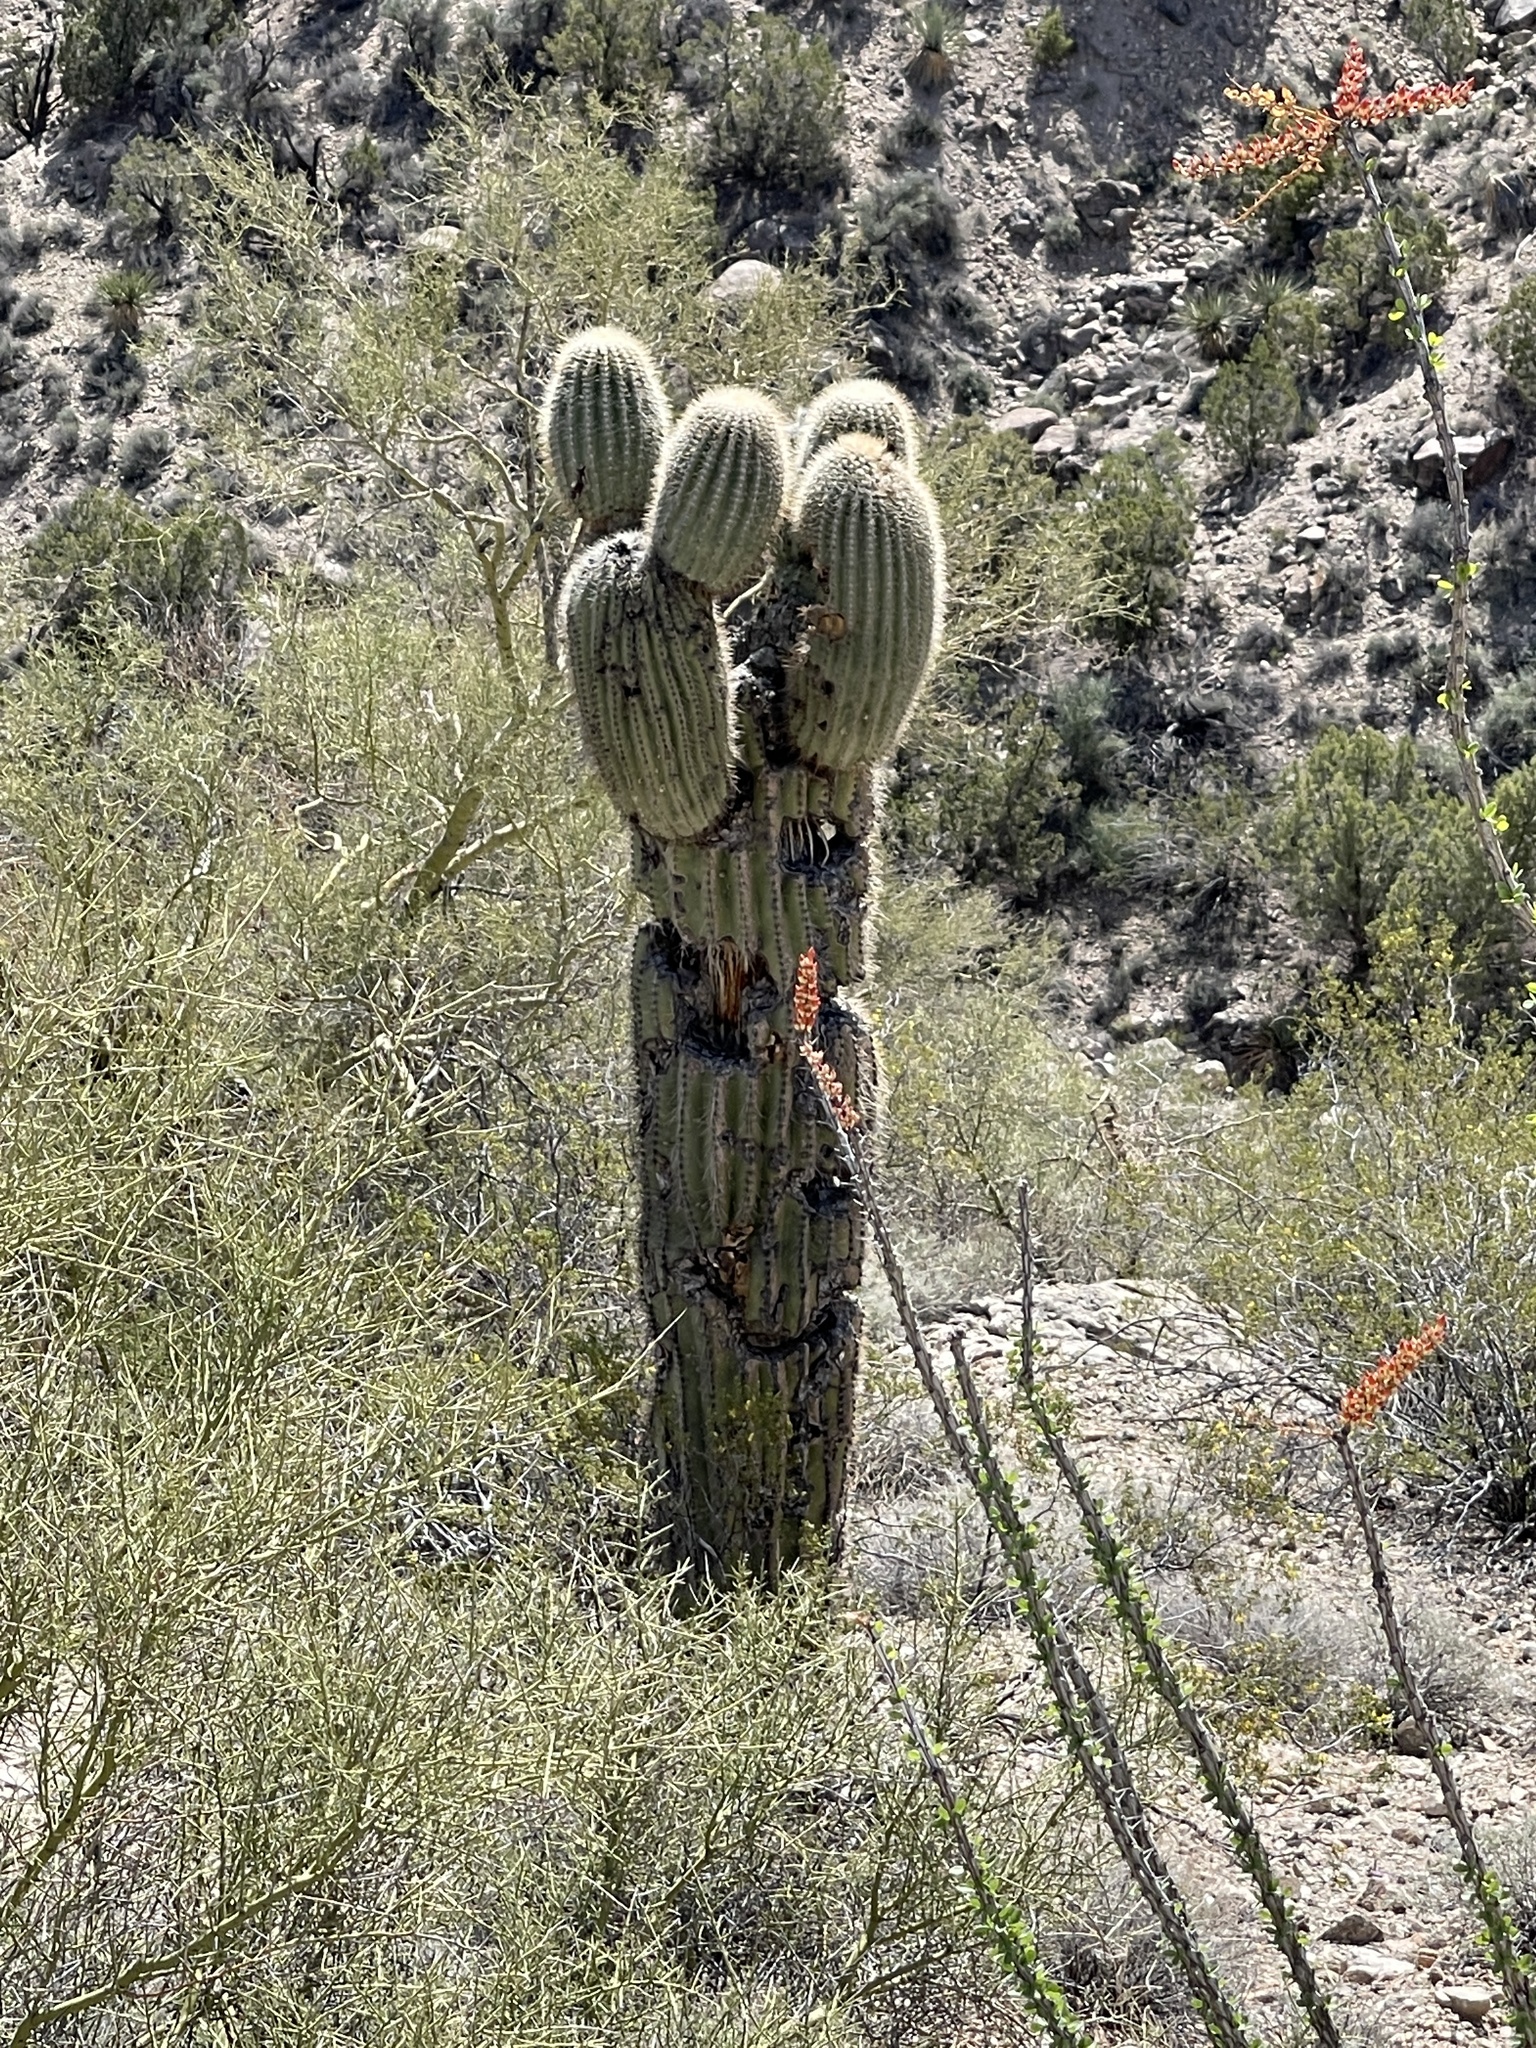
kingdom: Plantae
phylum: Tracheophyta
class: Magnoliopsida
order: Caryophyllales
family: Cactaceae
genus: Carnegiea
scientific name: Carnegiea gigantea
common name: Saguaro
